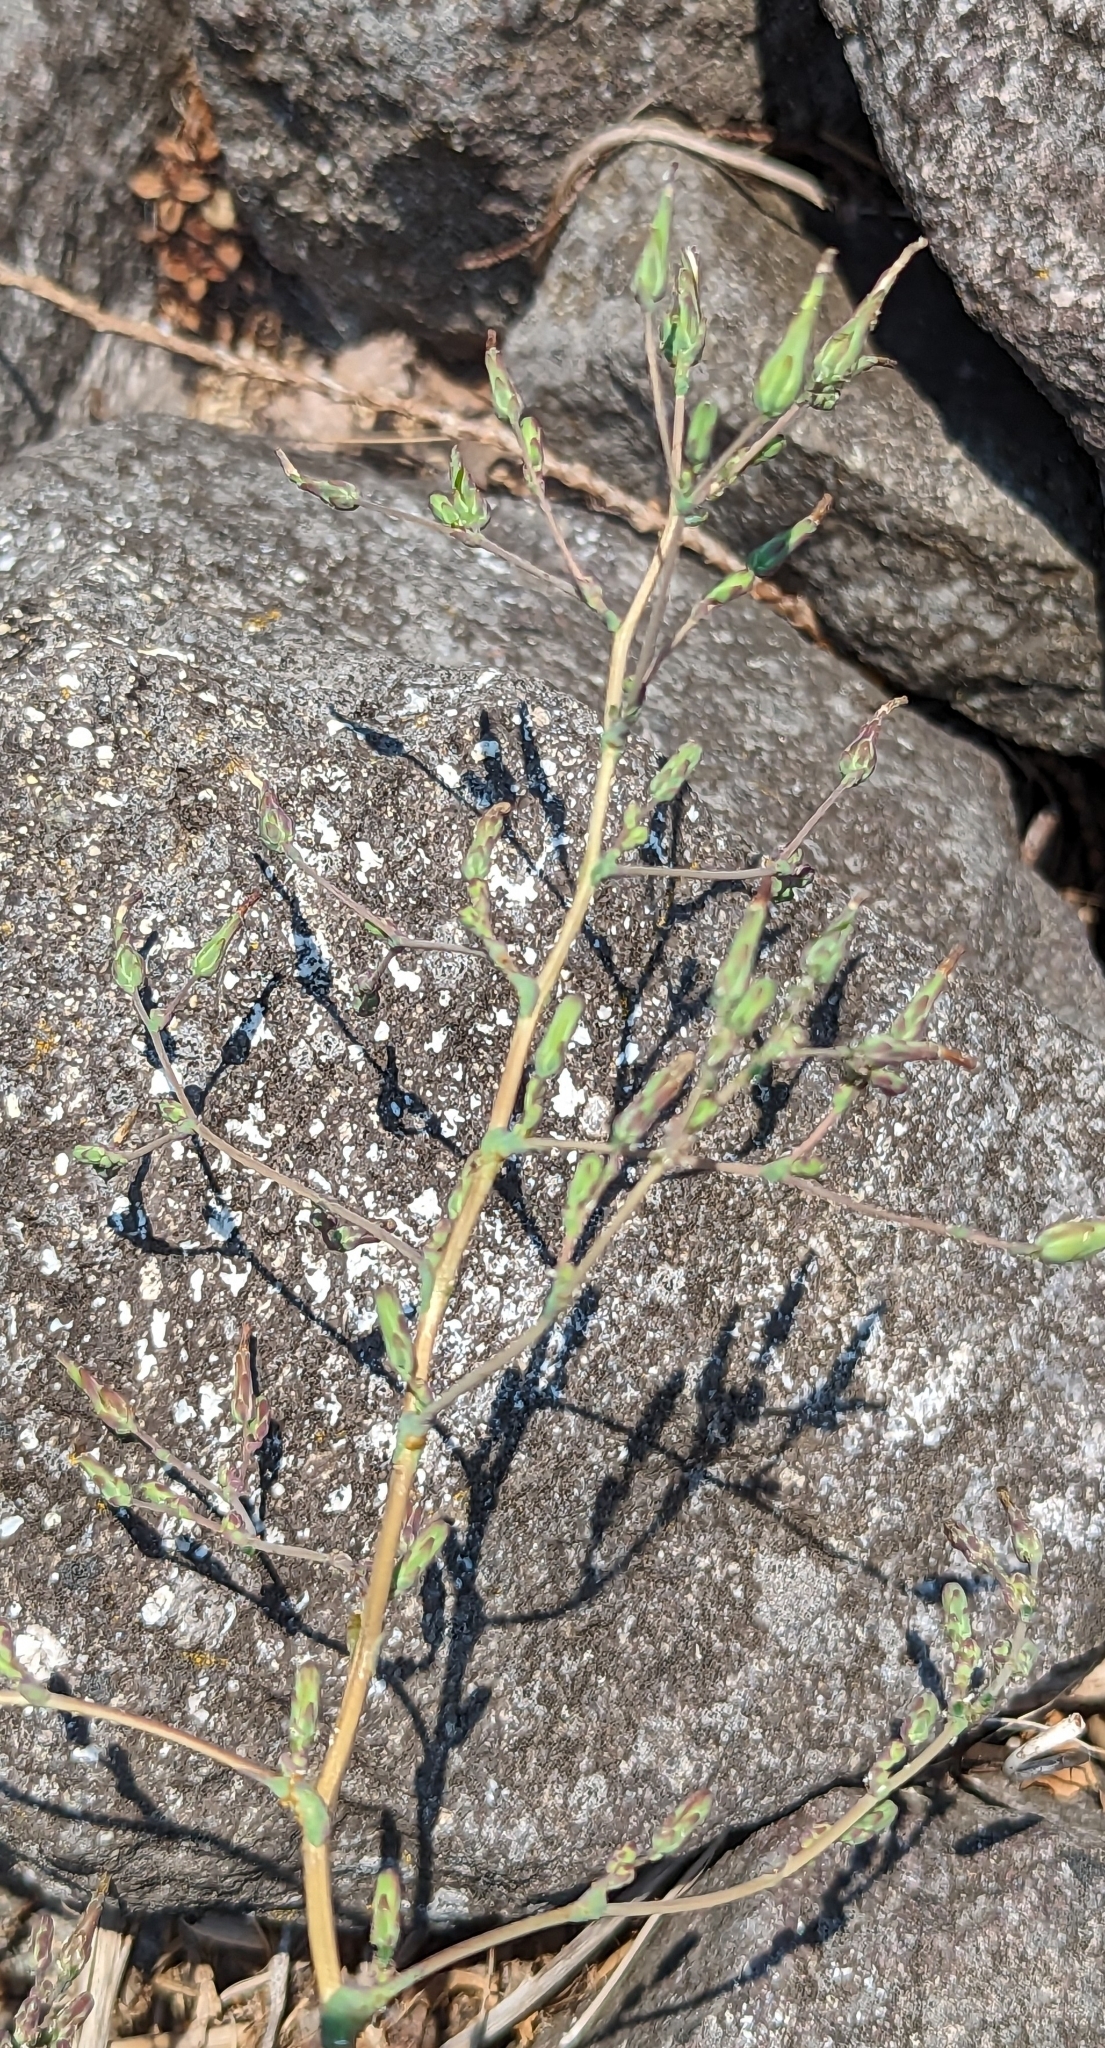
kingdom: Plantae
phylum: Tracheophyta
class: Magnoliopsida
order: Asterales
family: Asteraceae
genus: Lactuca
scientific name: Lactuca serriola
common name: Prickly lettuce
